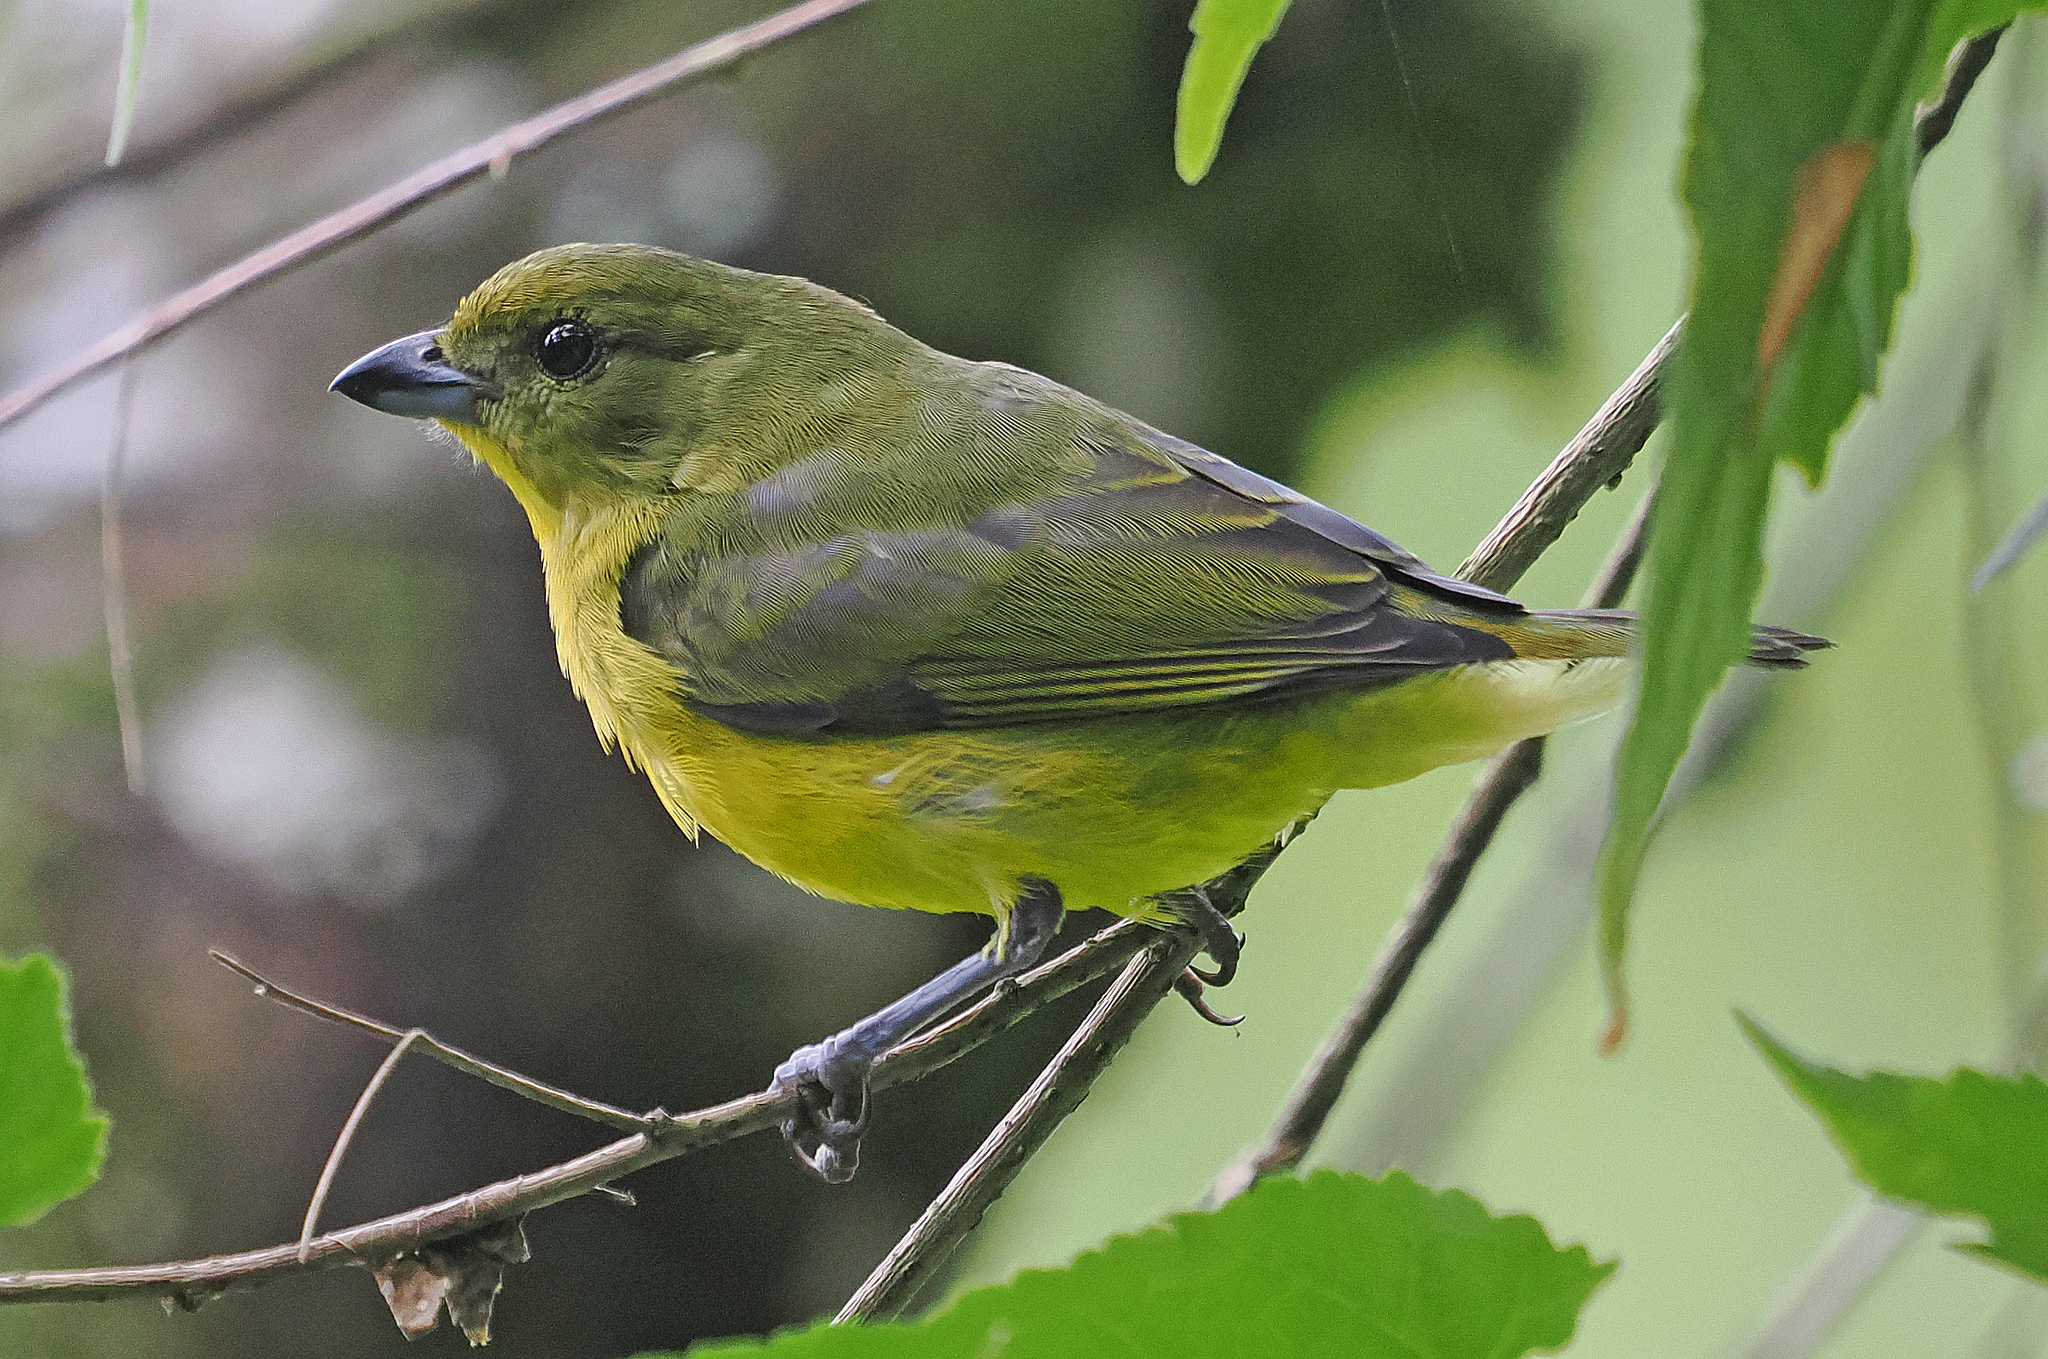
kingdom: Animalia
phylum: Chordata
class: Aves
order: Passeriformes
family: Fringillidae
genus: Euphonia
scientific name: Euphonia laniirostris
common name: Thick-billed euphonia
